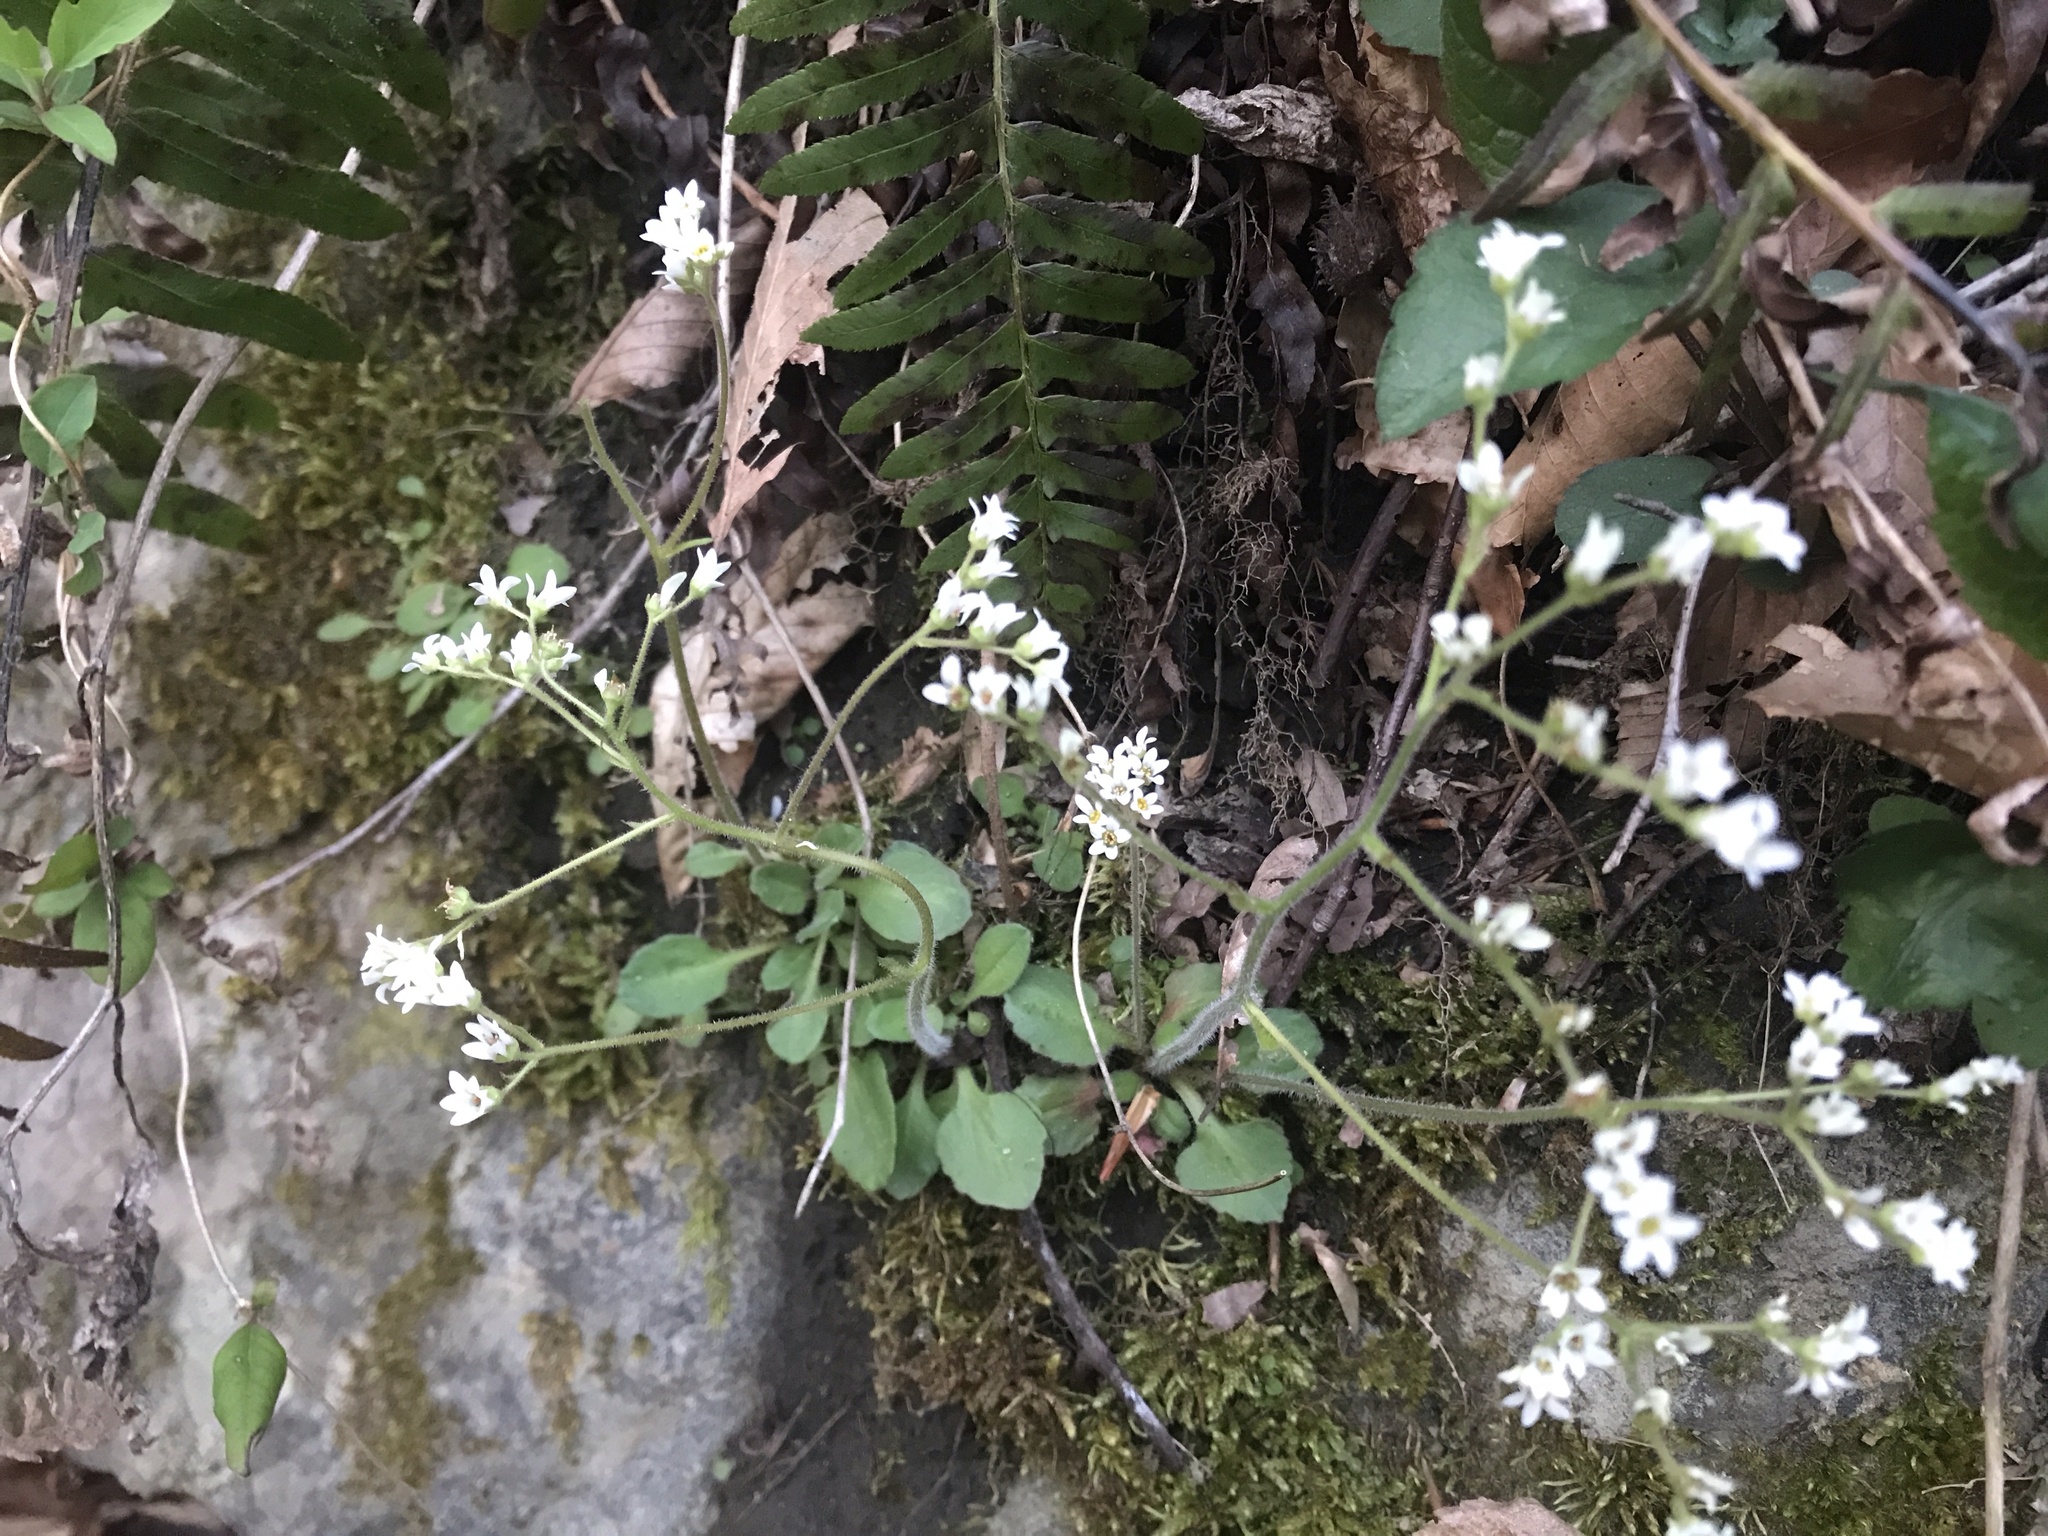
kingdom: Plantae
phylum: Tracheophyta
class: Magnoliopsida
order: Saxifragales
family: Saxifragaceae
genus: Micranthes
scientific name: Micranthes virginiensis
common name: Early saxifrage
